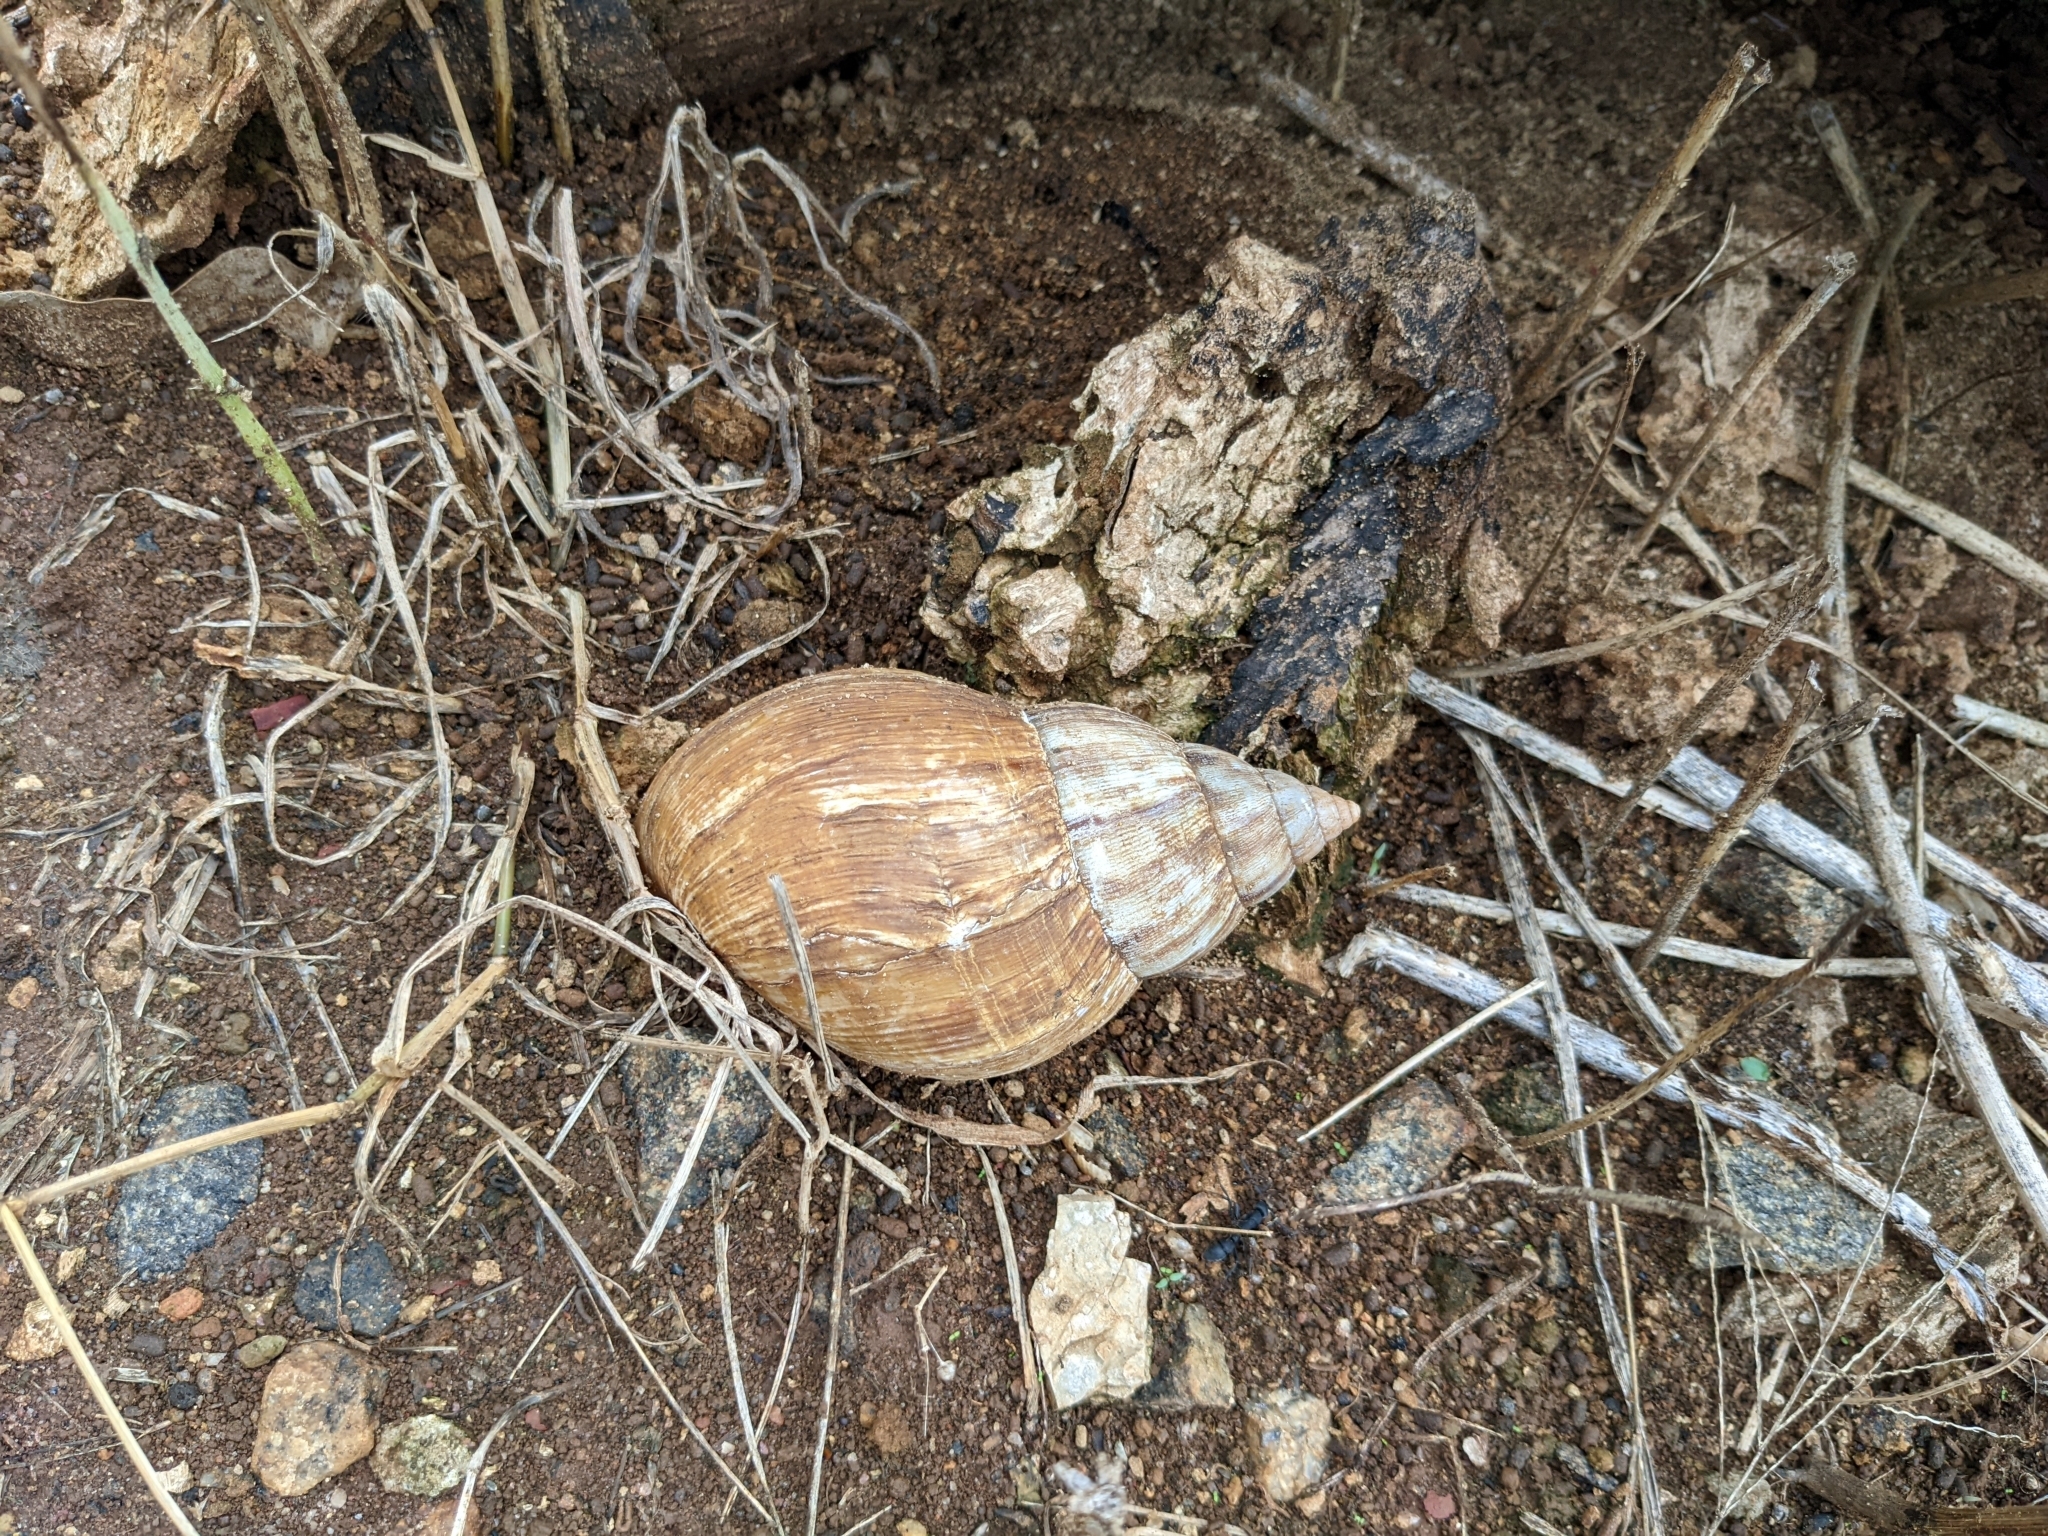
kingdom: Animalia
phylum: Mollusca
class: Gastropoda
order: Stylommatophora
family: Achatinidae
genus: Lissachatina
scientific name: Lissachatina fulica
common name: Giant african snail
